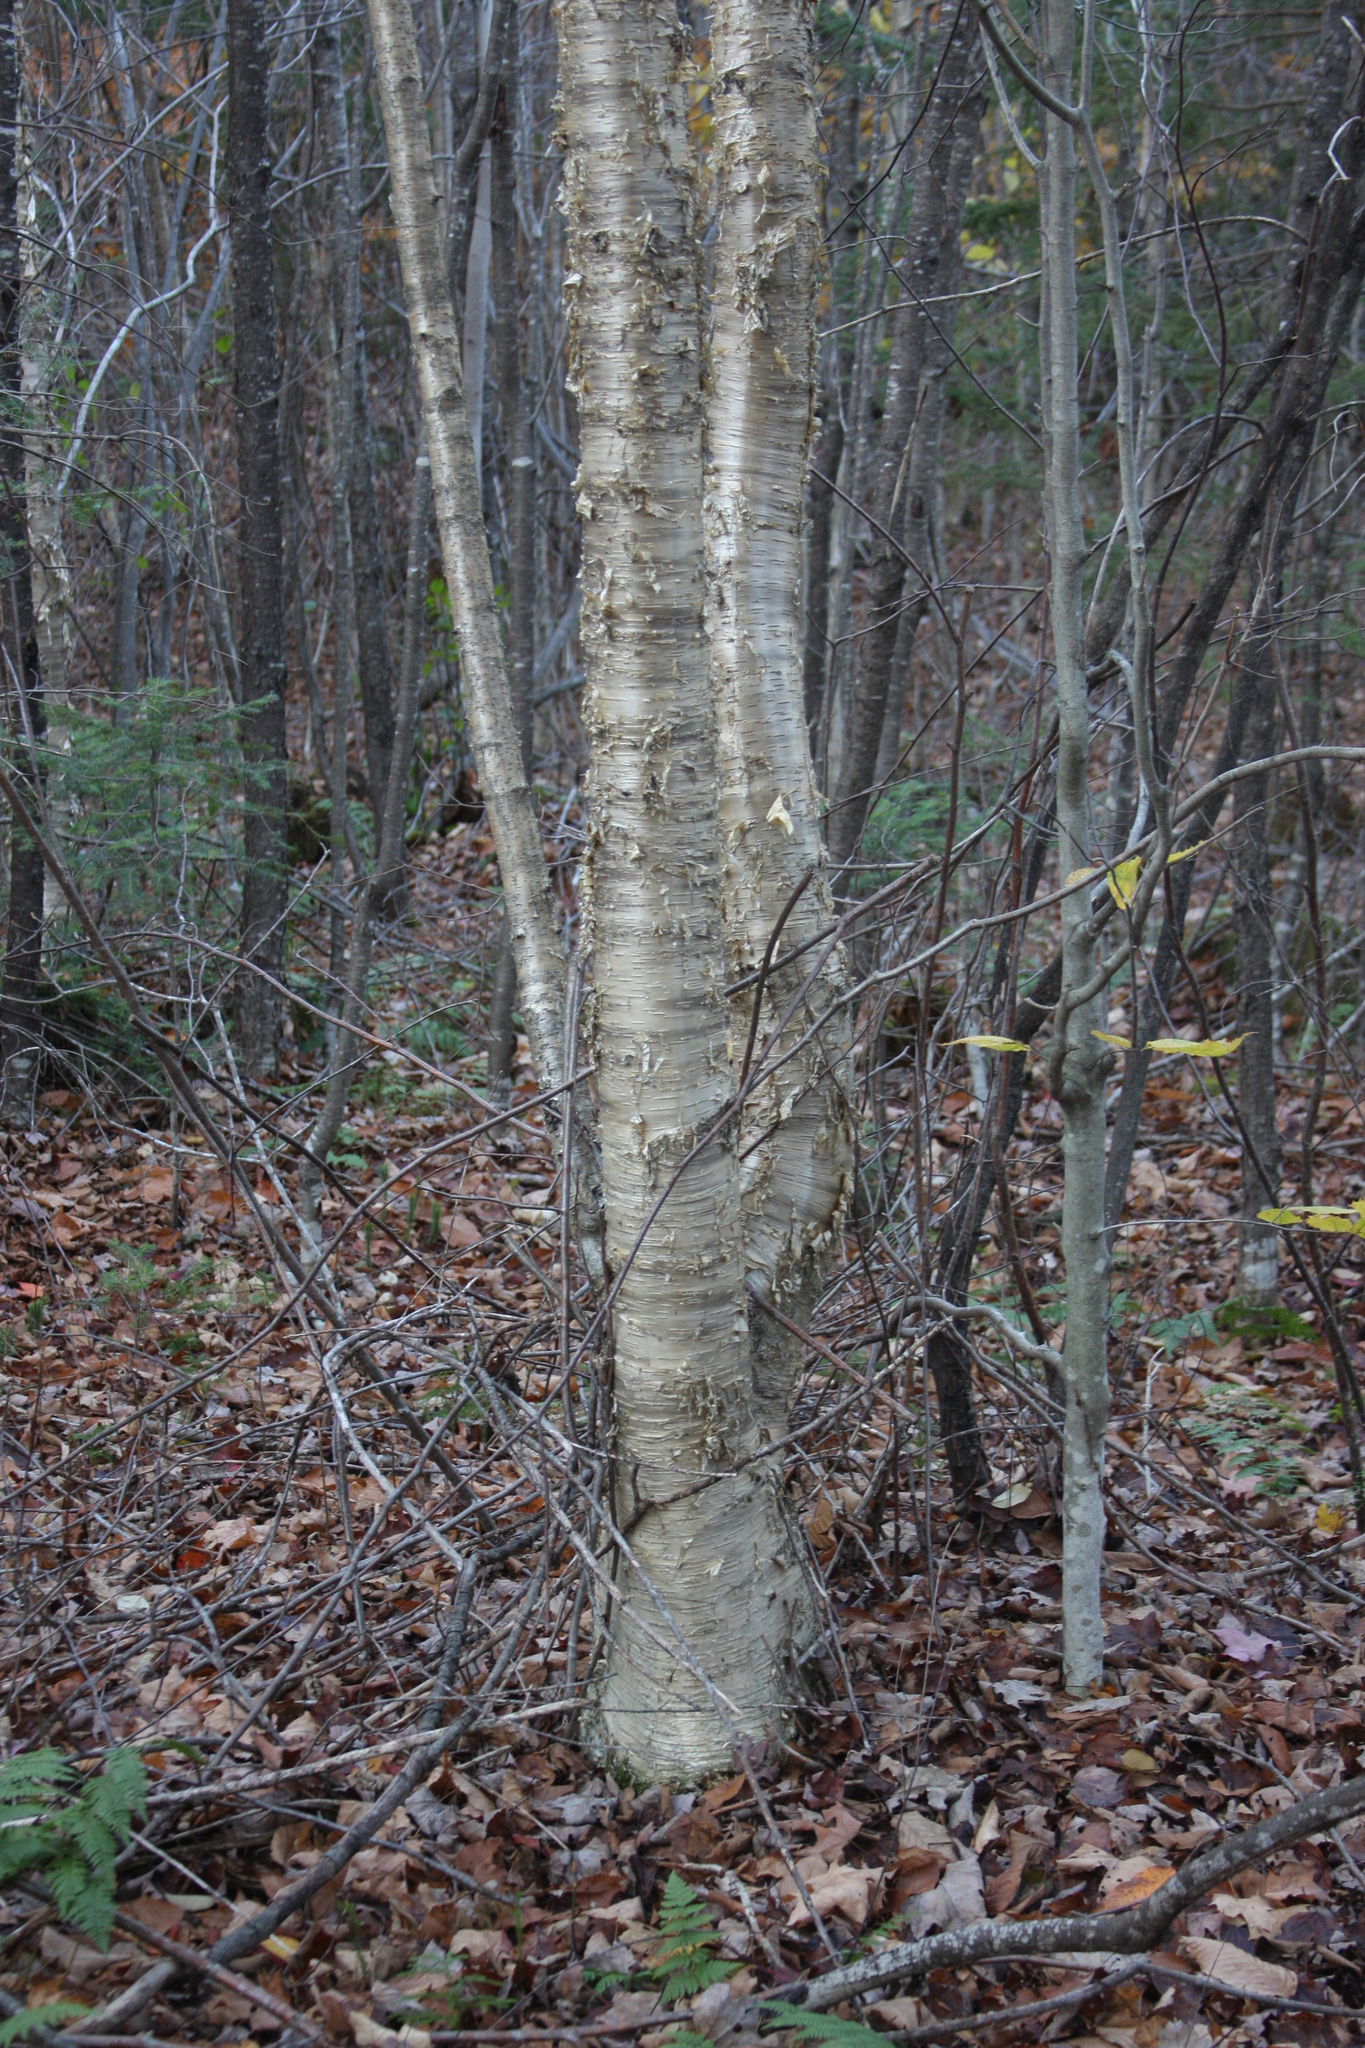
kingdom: Plantae
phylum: Tracheophyta
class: Magnoliopsida
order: Fagales
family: Betulaceae
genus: Betula
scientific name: Betula alleghaniensis
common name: Yellow birch
